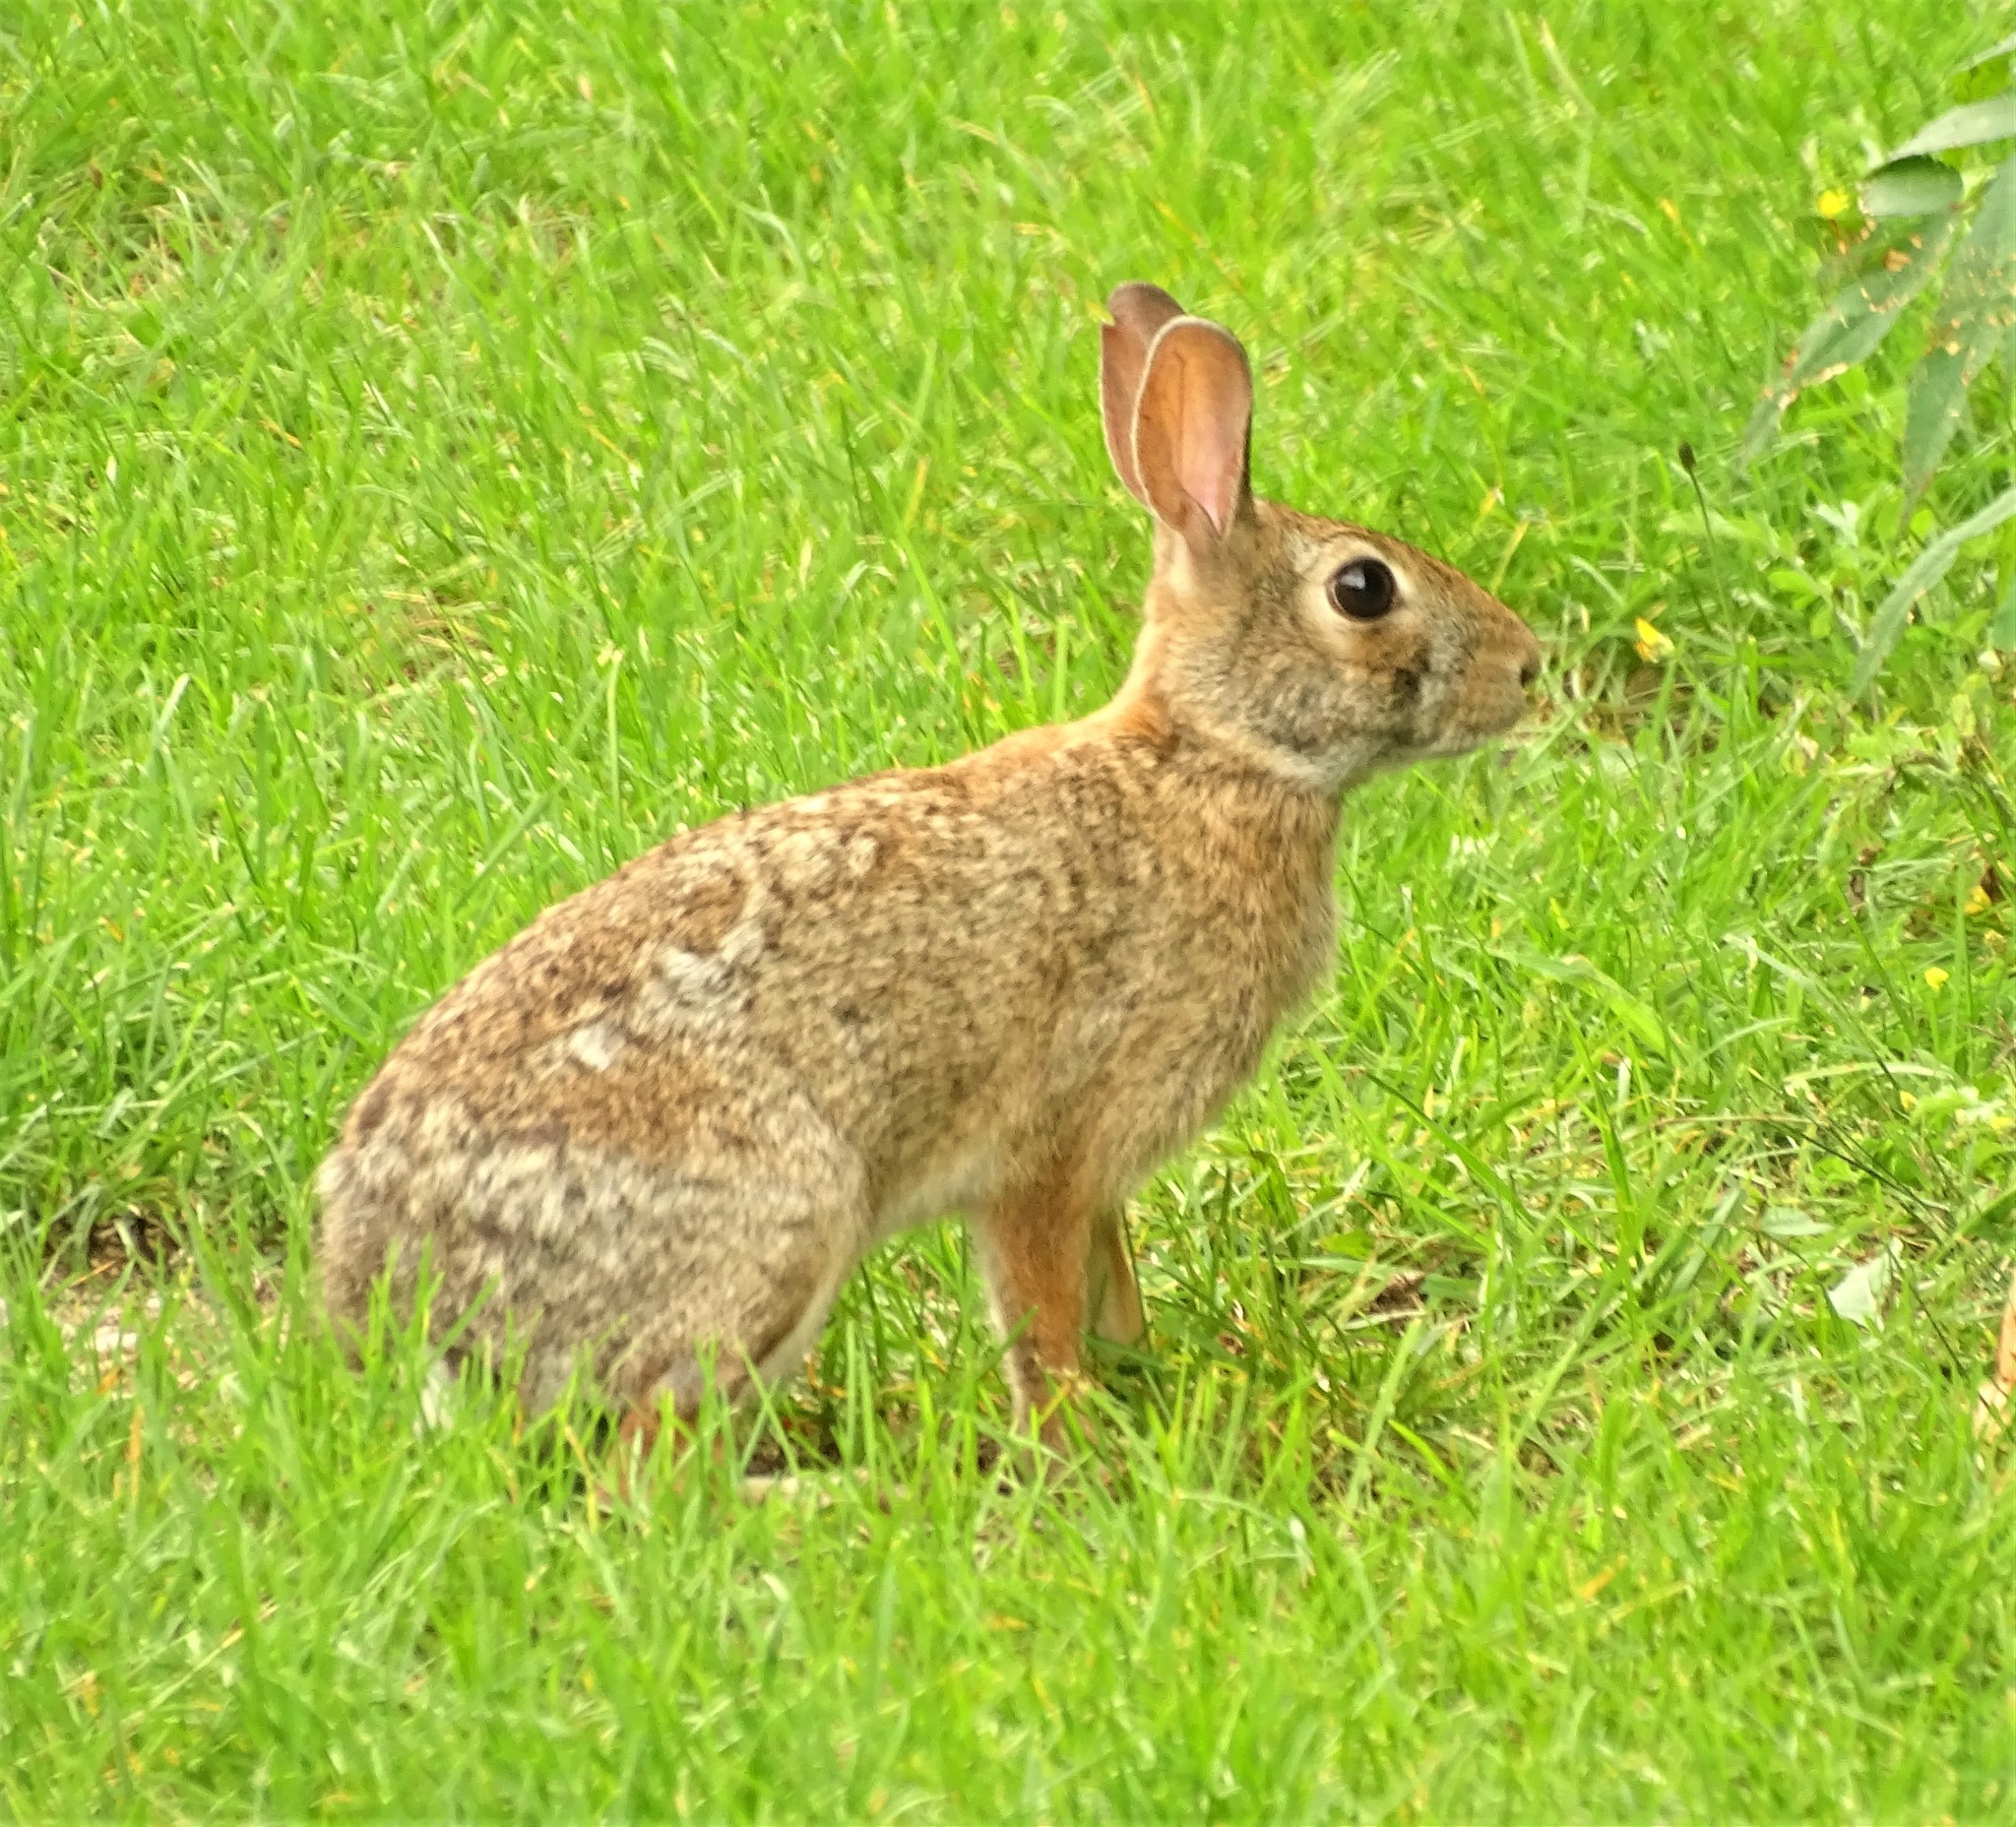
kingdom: Animalia
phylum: Chordata
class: Mammalia
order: Lagomorpha
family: Leporidae
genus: Sylvilagus
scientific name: Sylvilagus floridanus
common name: Eastern cottontail
